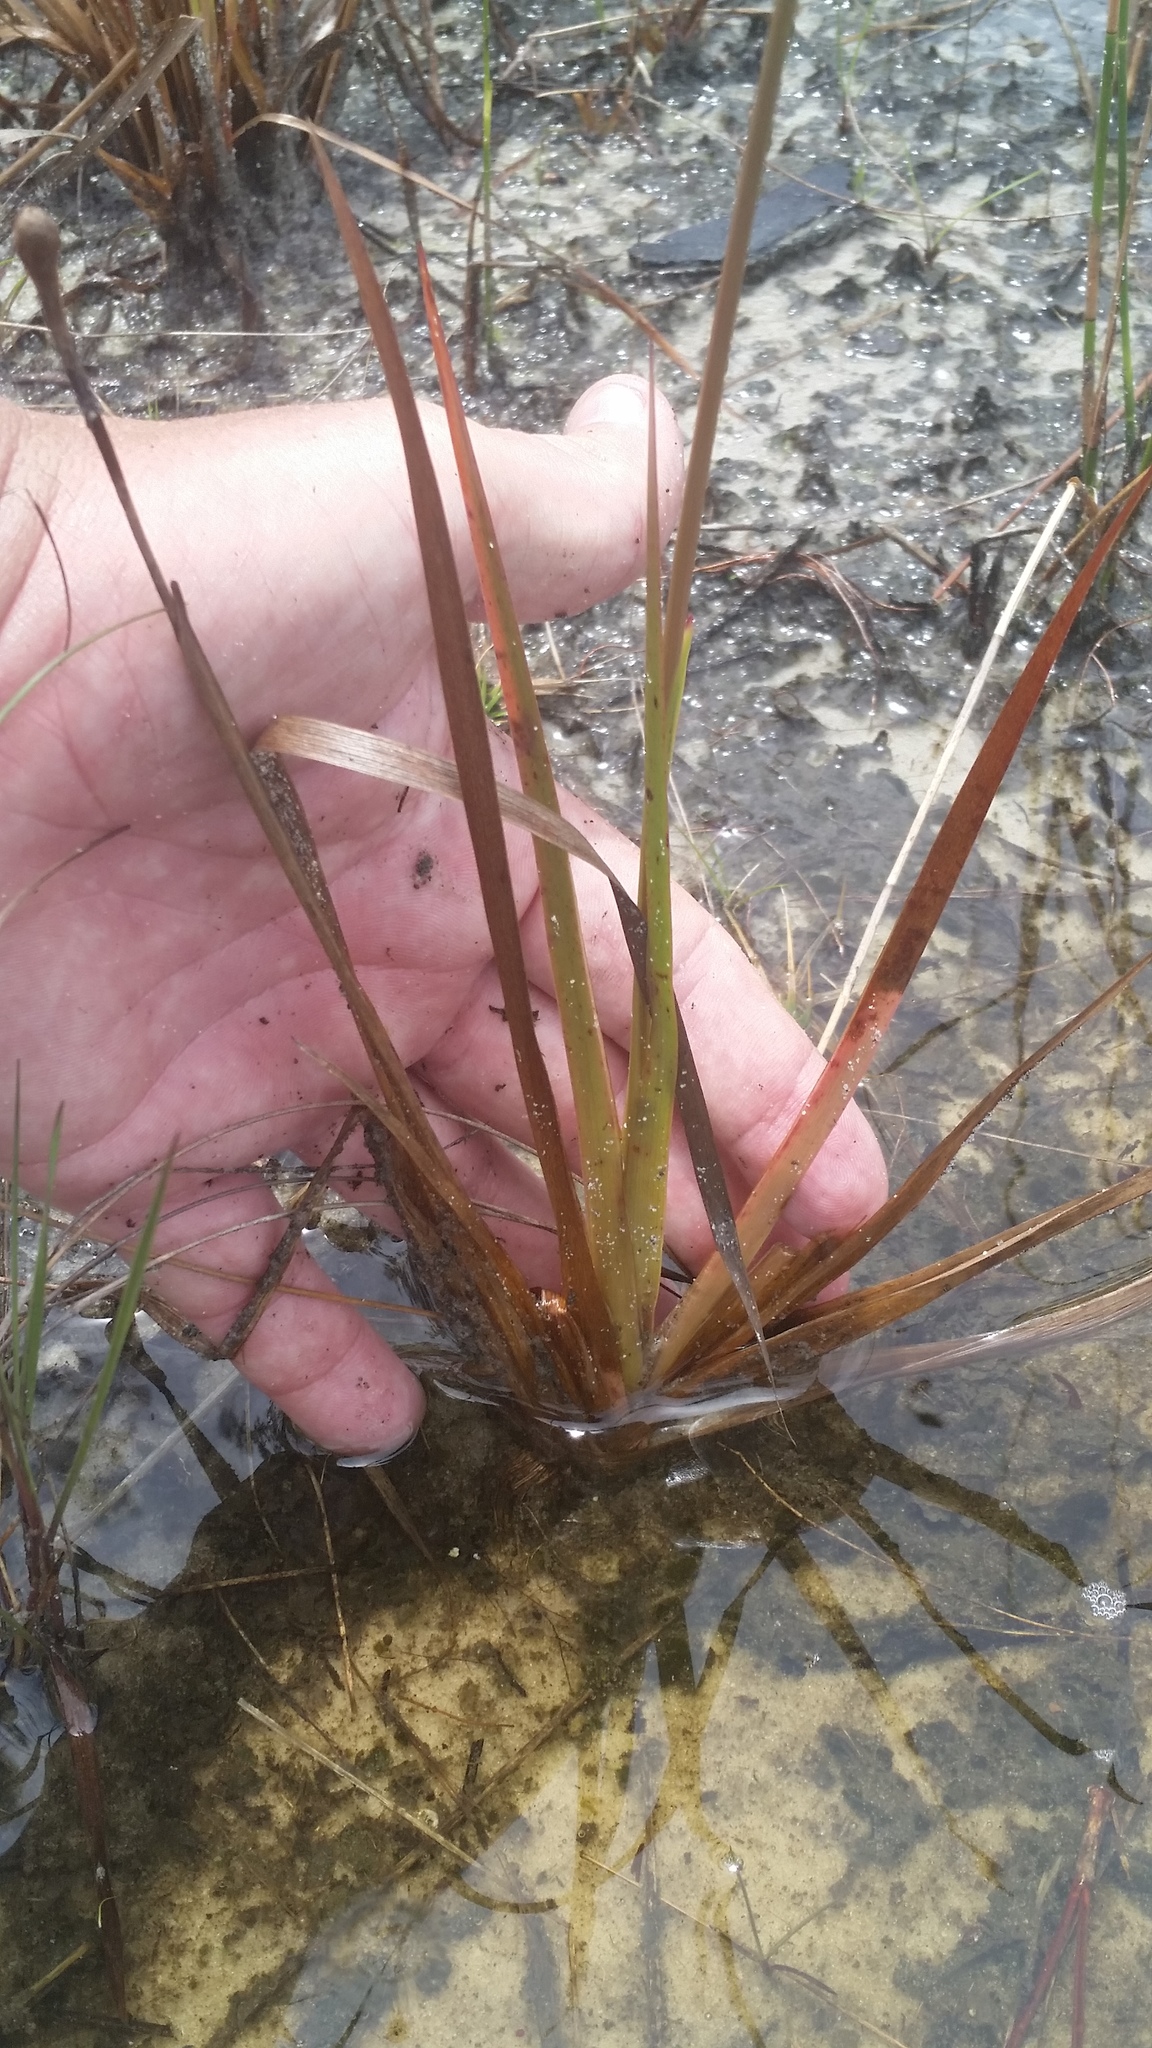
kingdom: Plantae
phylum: Tracheophyta
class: Liliopsida
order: Poales
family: Xyridaceae
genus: Xyris
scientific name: Xyris smalliana
